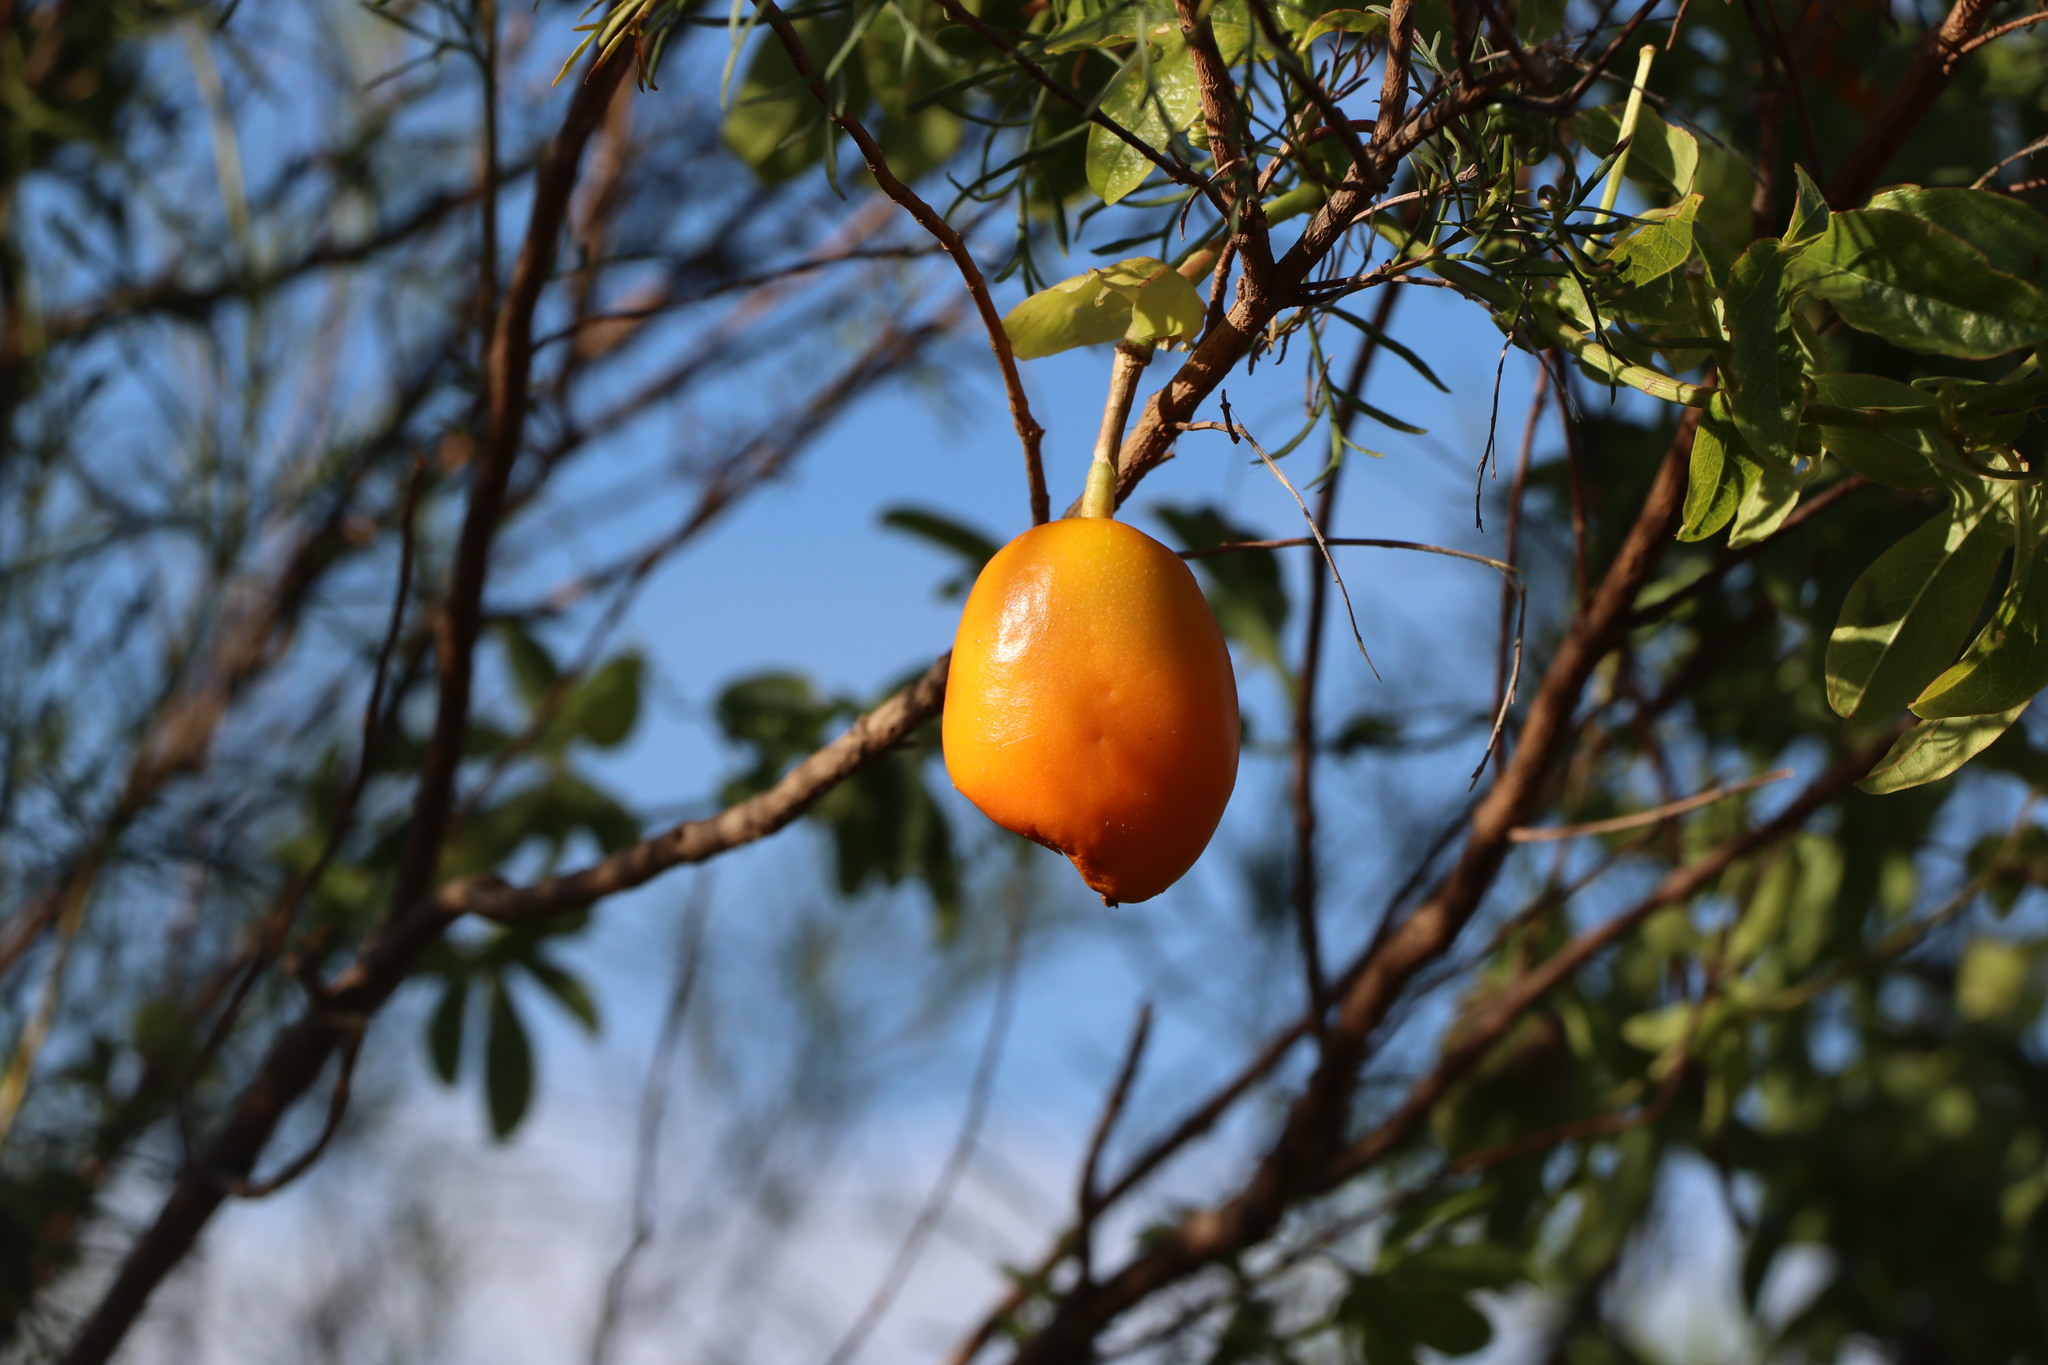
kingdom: Plantae
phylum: Tracheophyta
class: Magnoliopsida
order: Malpighiales
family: Passifloraceae
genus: Passiflora
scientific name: Passiflora caerulea
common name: Blue passionflower
